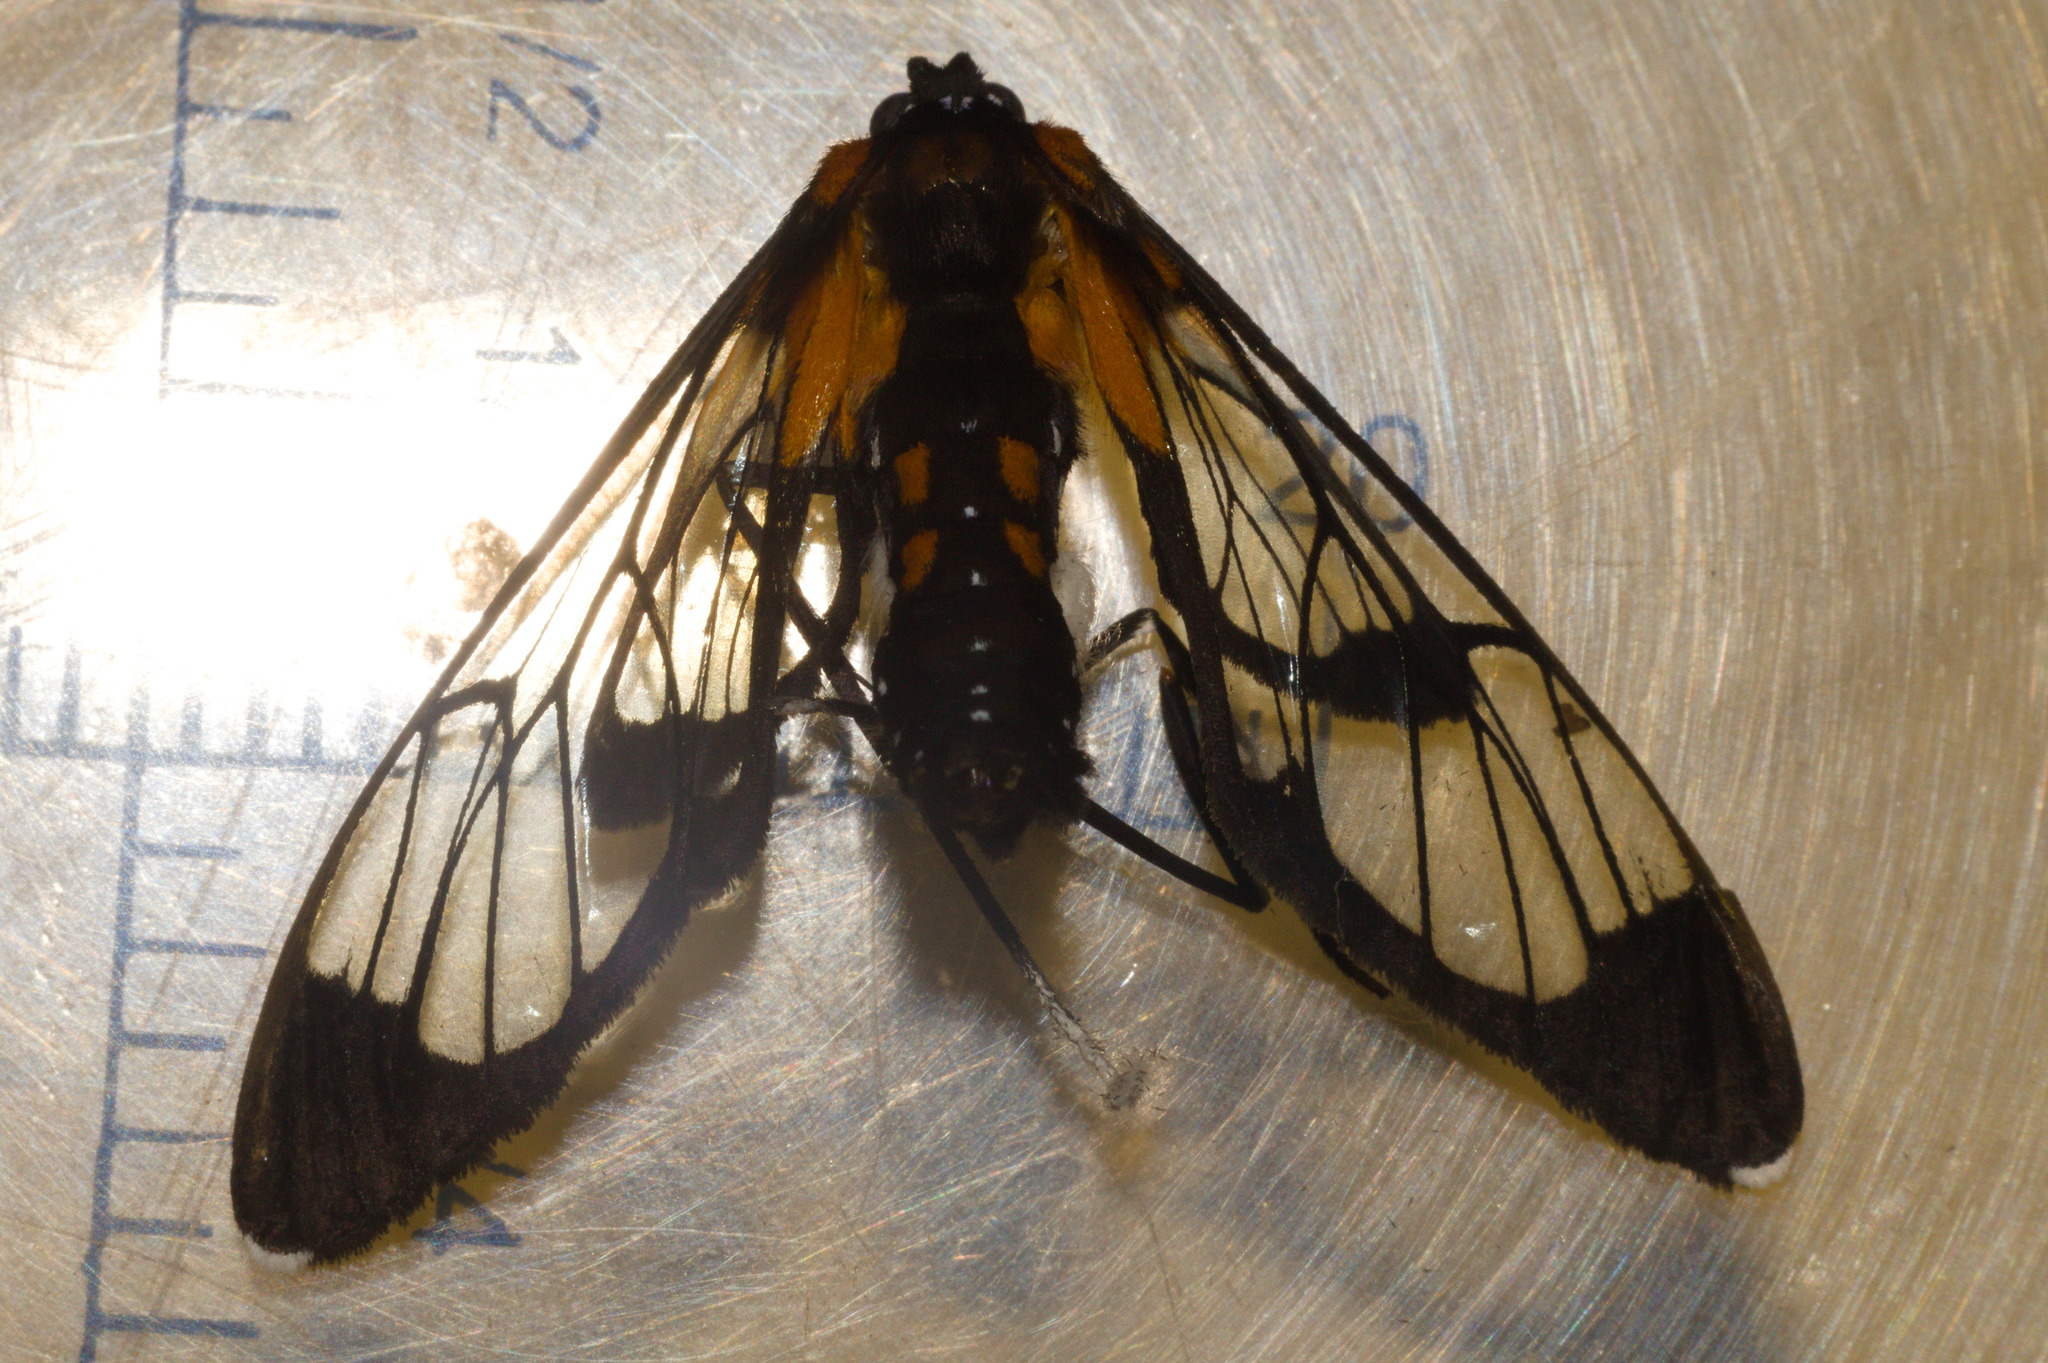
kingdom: Animalia
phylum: Arthropoda
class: Insecta
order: Lepidoptera
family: Erebidae
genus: Cosmosoma
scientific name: Cosmosoma Erruca hanga
